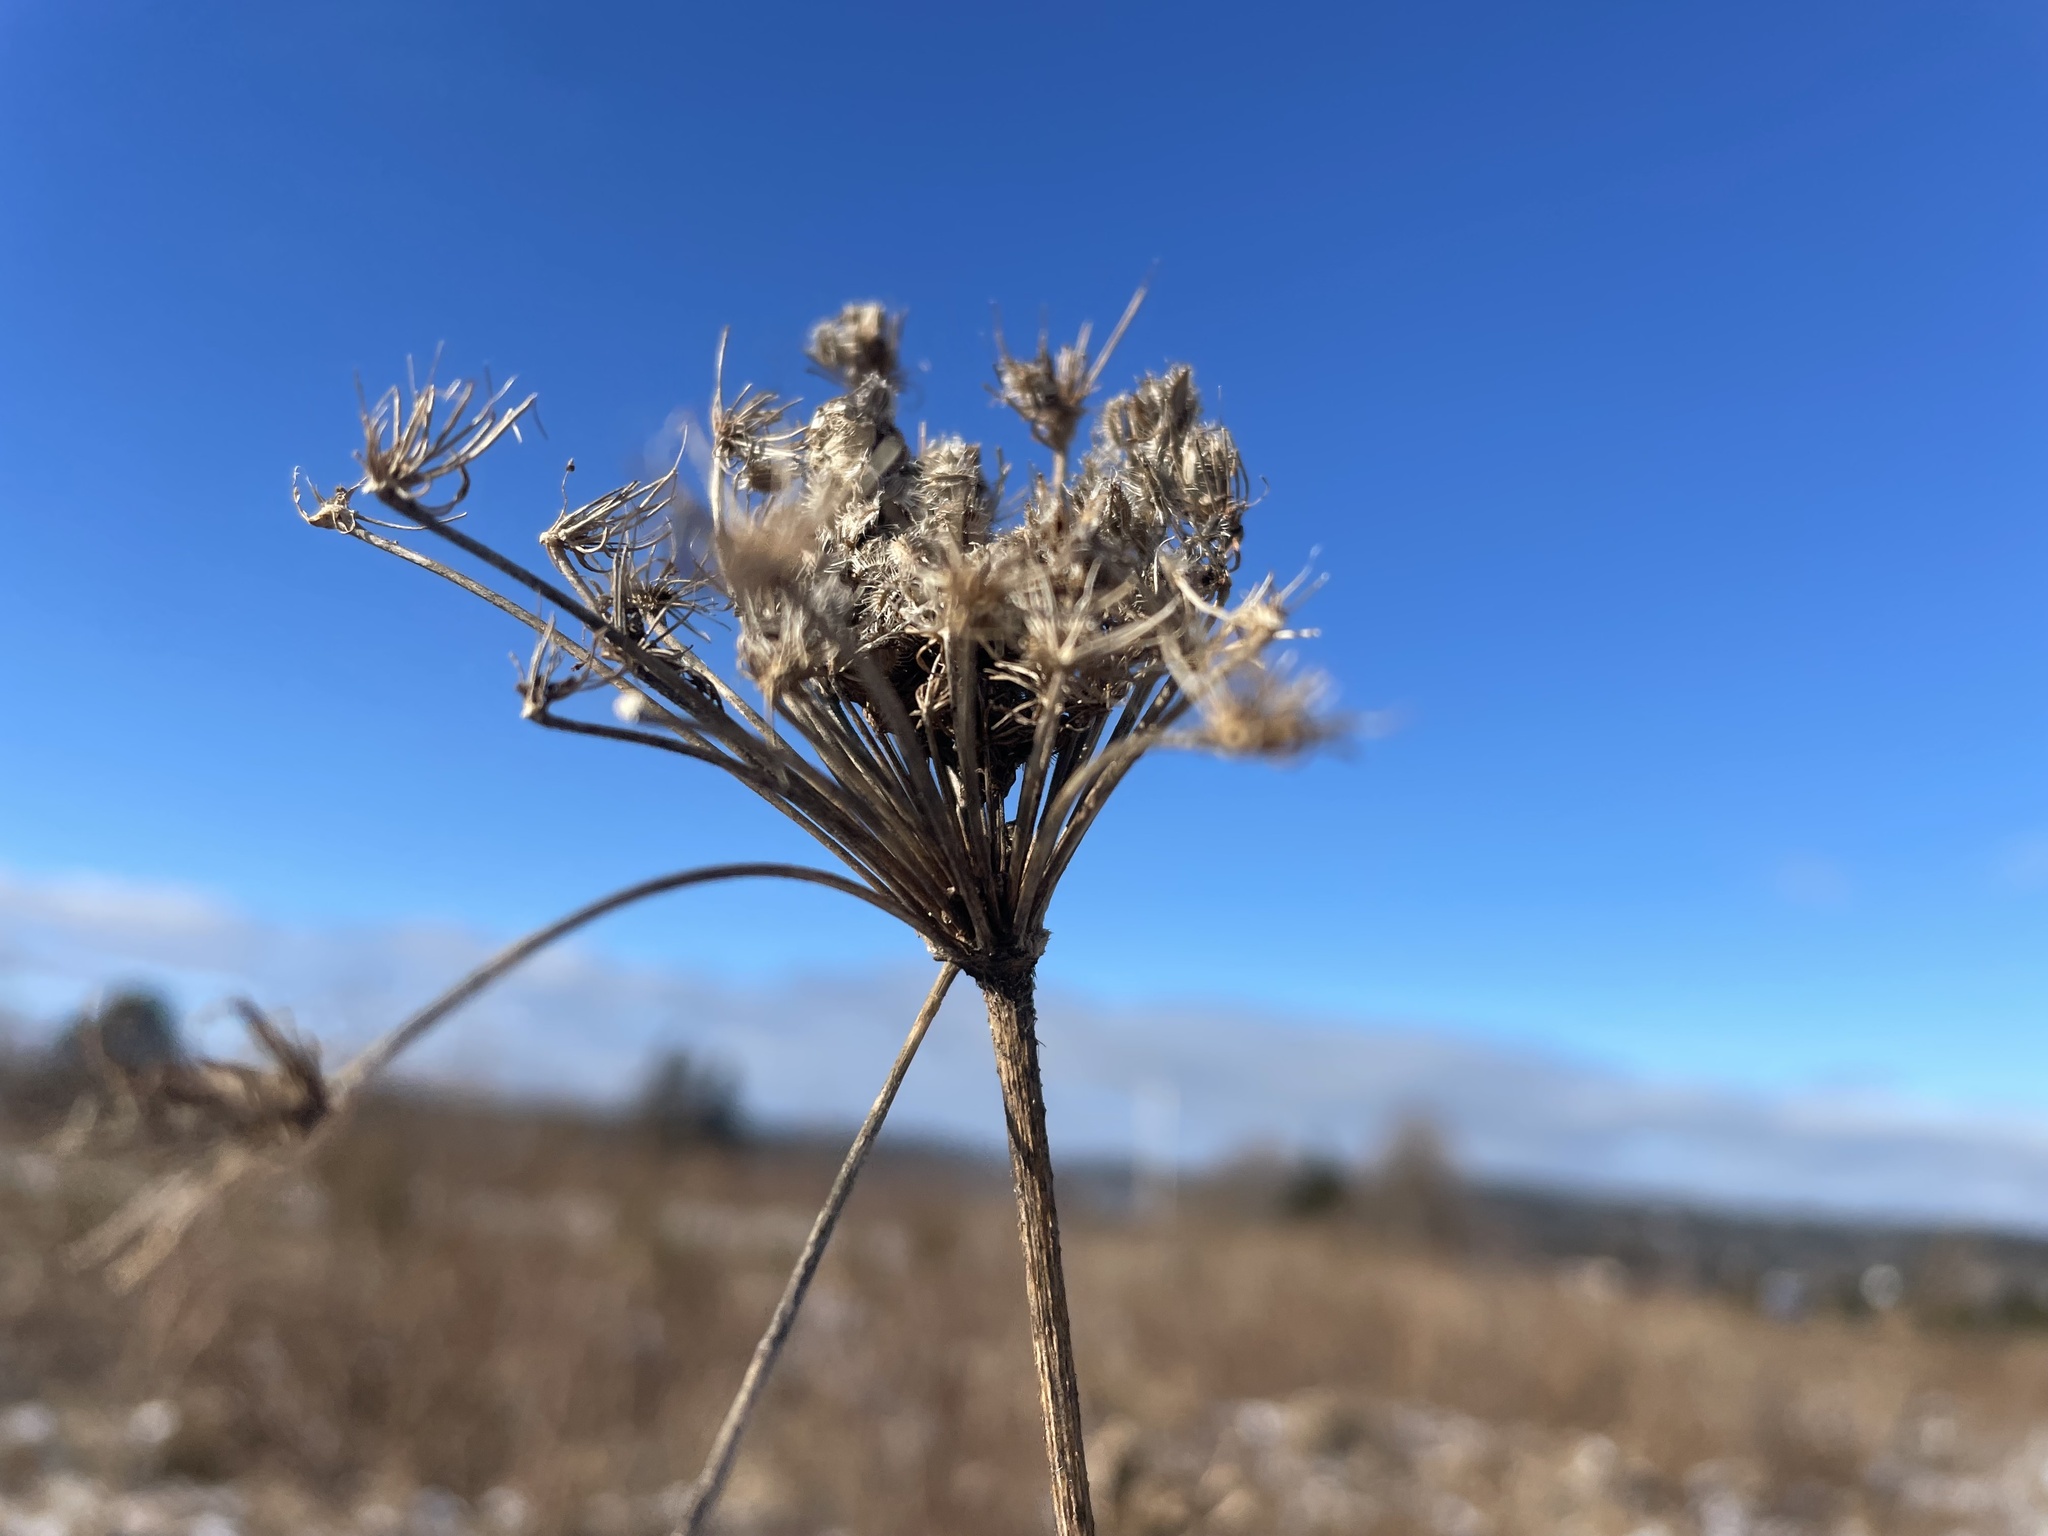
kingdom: Plantae
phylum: Tracheophyta
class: Magnoliopsida
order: Apiales
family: Apiaceae
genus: Daucus
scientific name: Daucus carota
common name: Wild carrot
